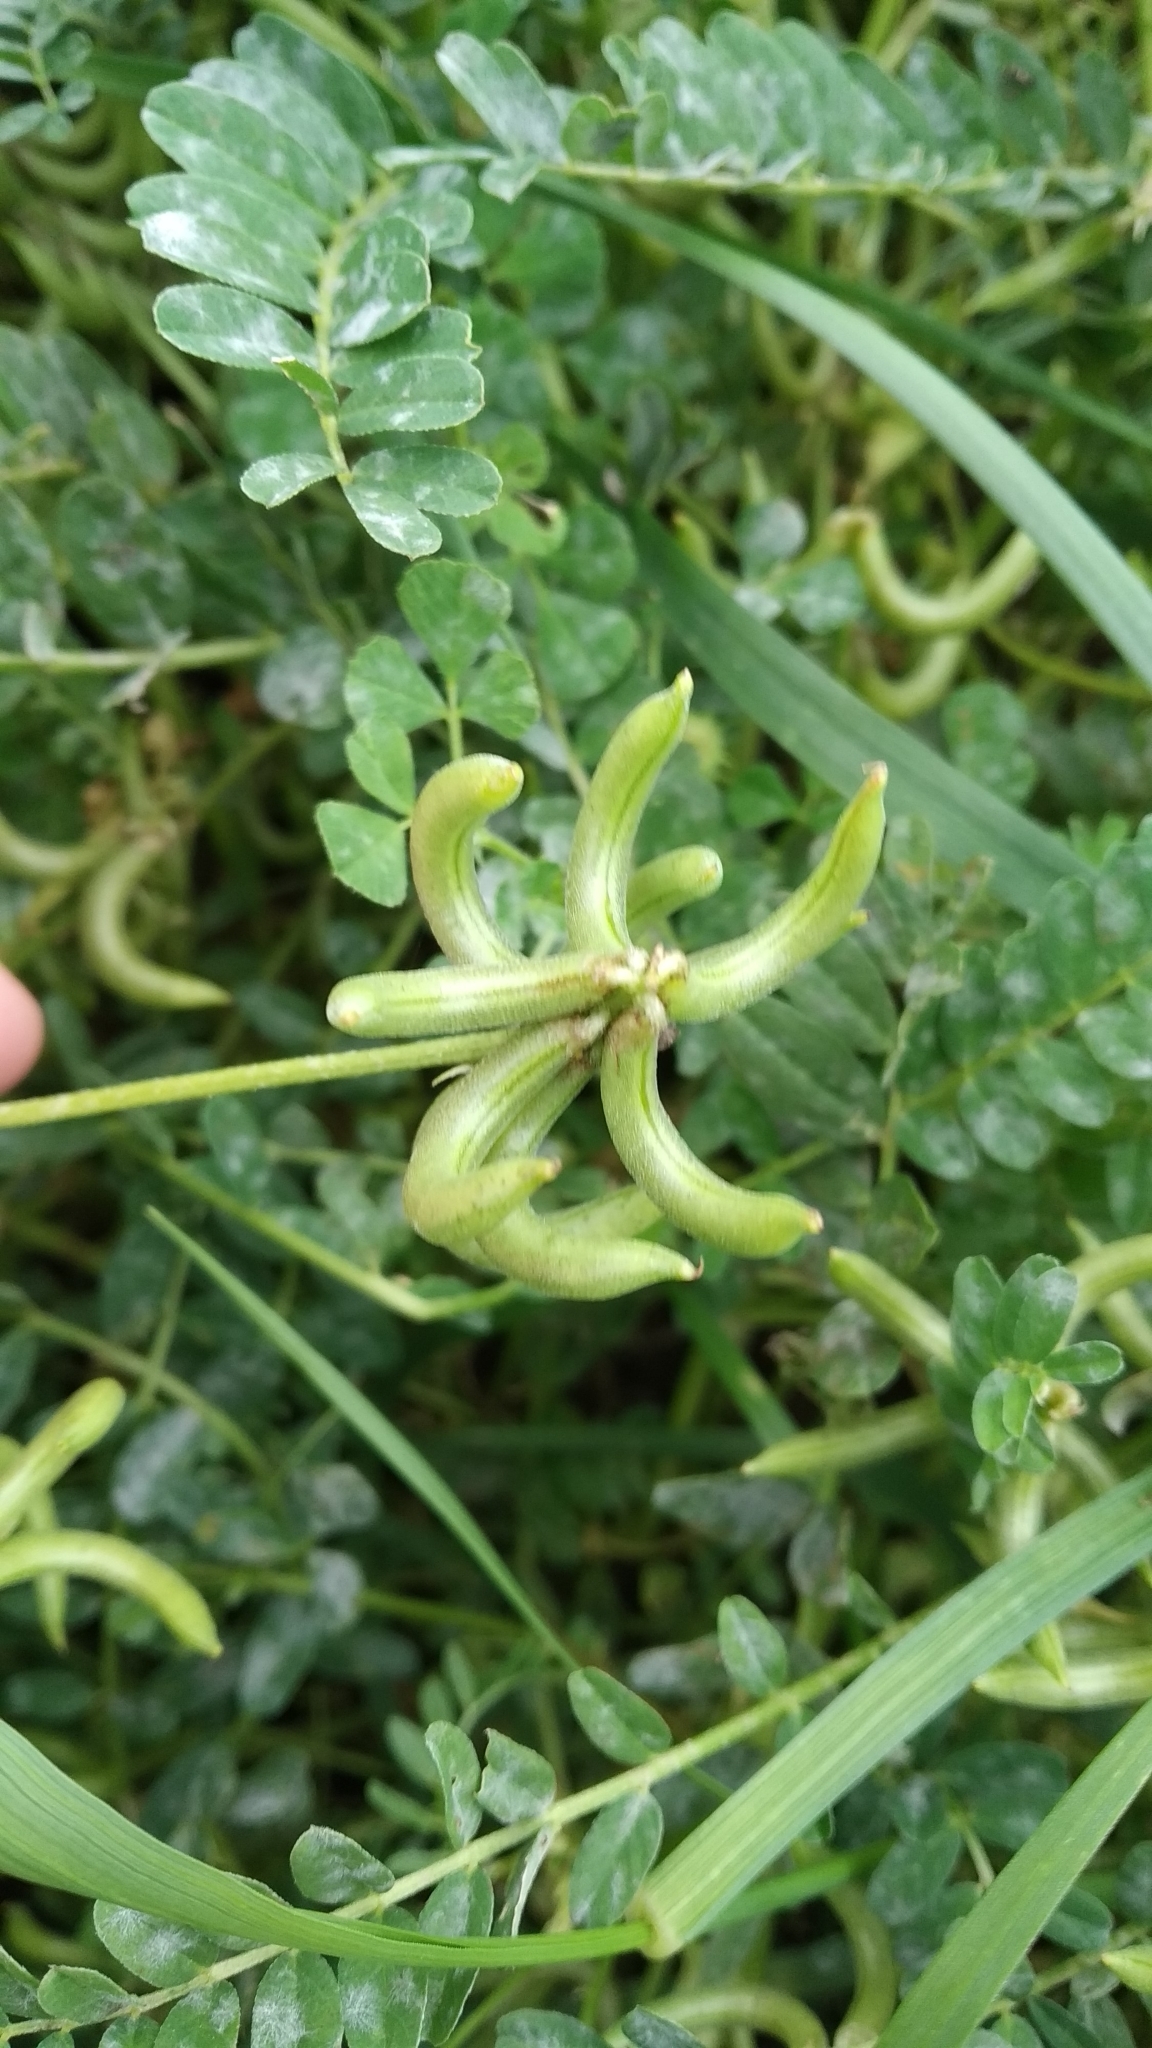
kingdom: Plantae
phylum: Tracheophyta
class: Magnoliopsida
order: Fabales
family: Fabaceae
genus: Astragalus
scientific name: Astragalus hamosus
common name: European milkvetch
